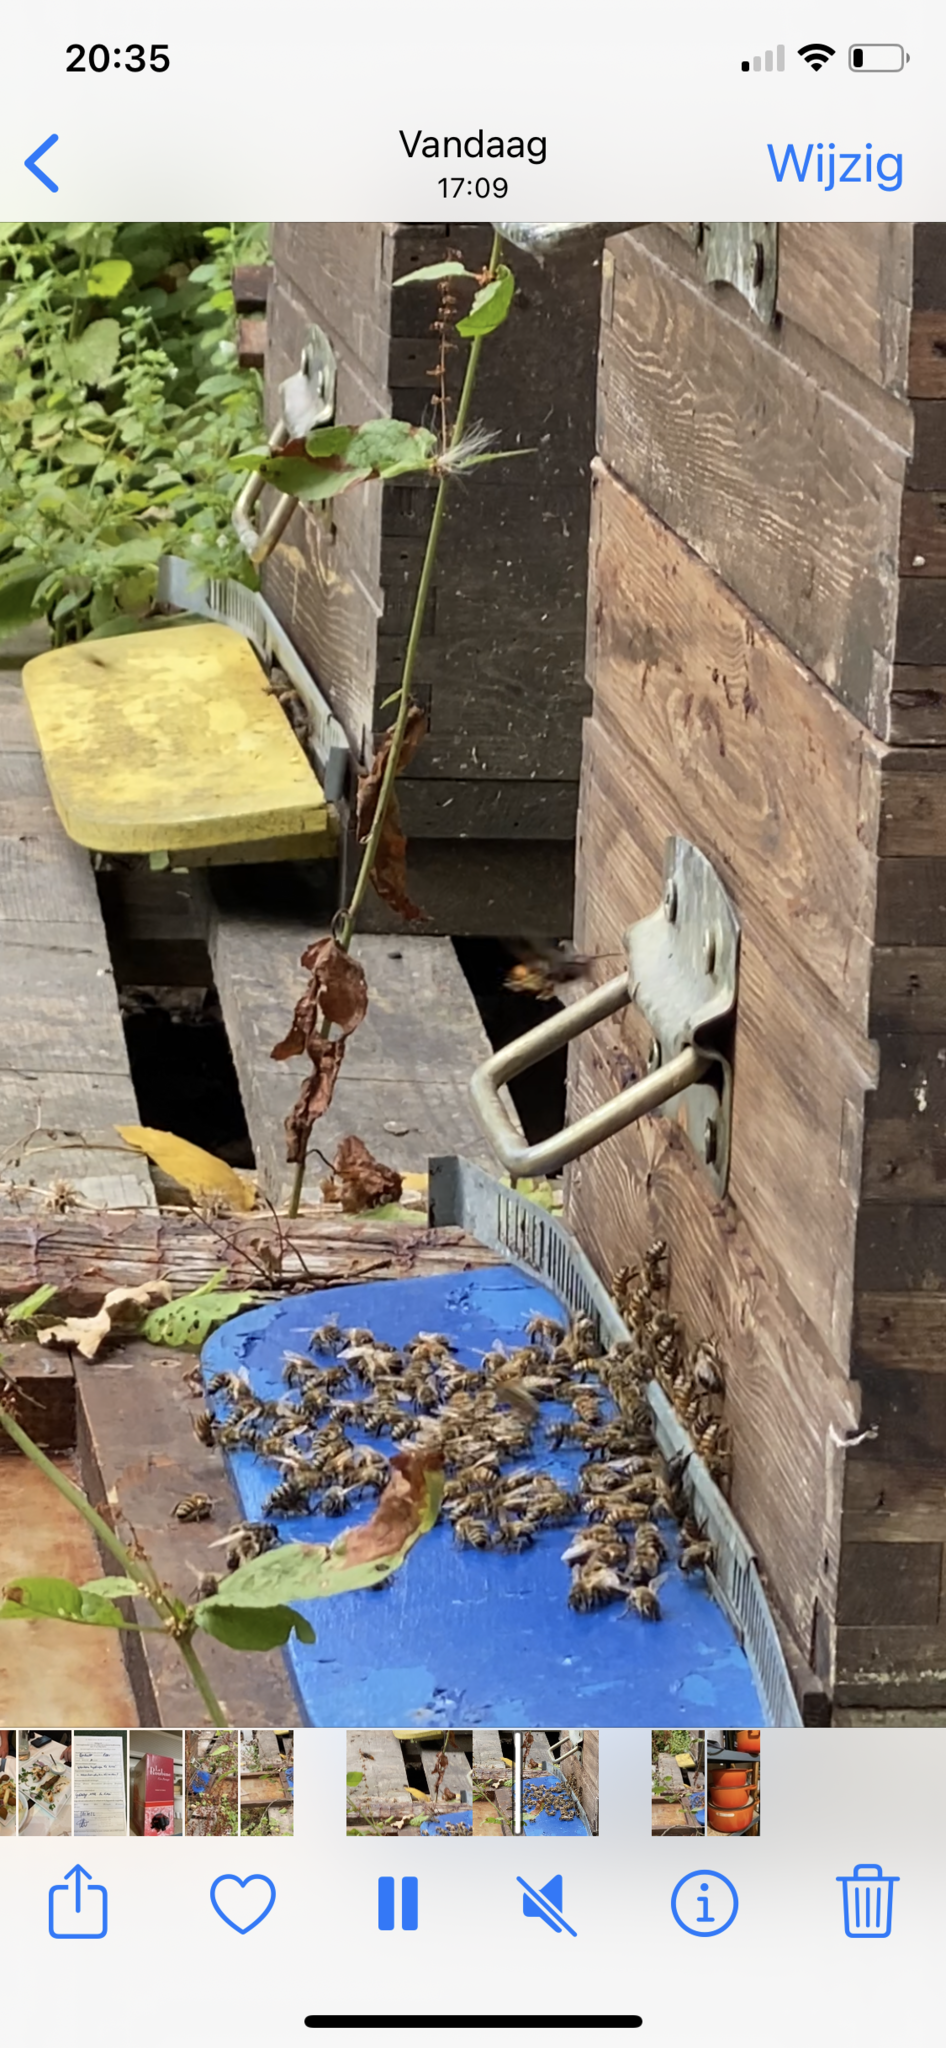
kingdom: Animalia
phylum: Arthropoda
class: Insecta
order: Hymenoptera
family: Vespidae
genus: Vespa
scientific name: Vespa velutina
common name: Asian hornet
